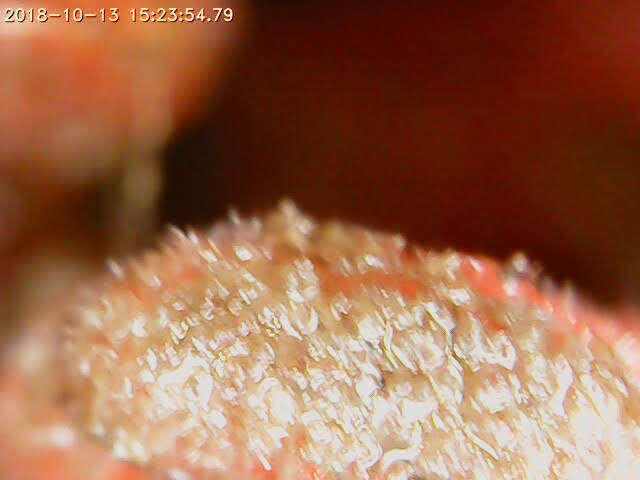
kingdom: Animalia
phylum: Porifera
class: Demospongiae
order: Poecilosclerida
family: Microcionidae
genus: Clathria
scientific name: Clathria prolifera
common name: Red beard sponge
